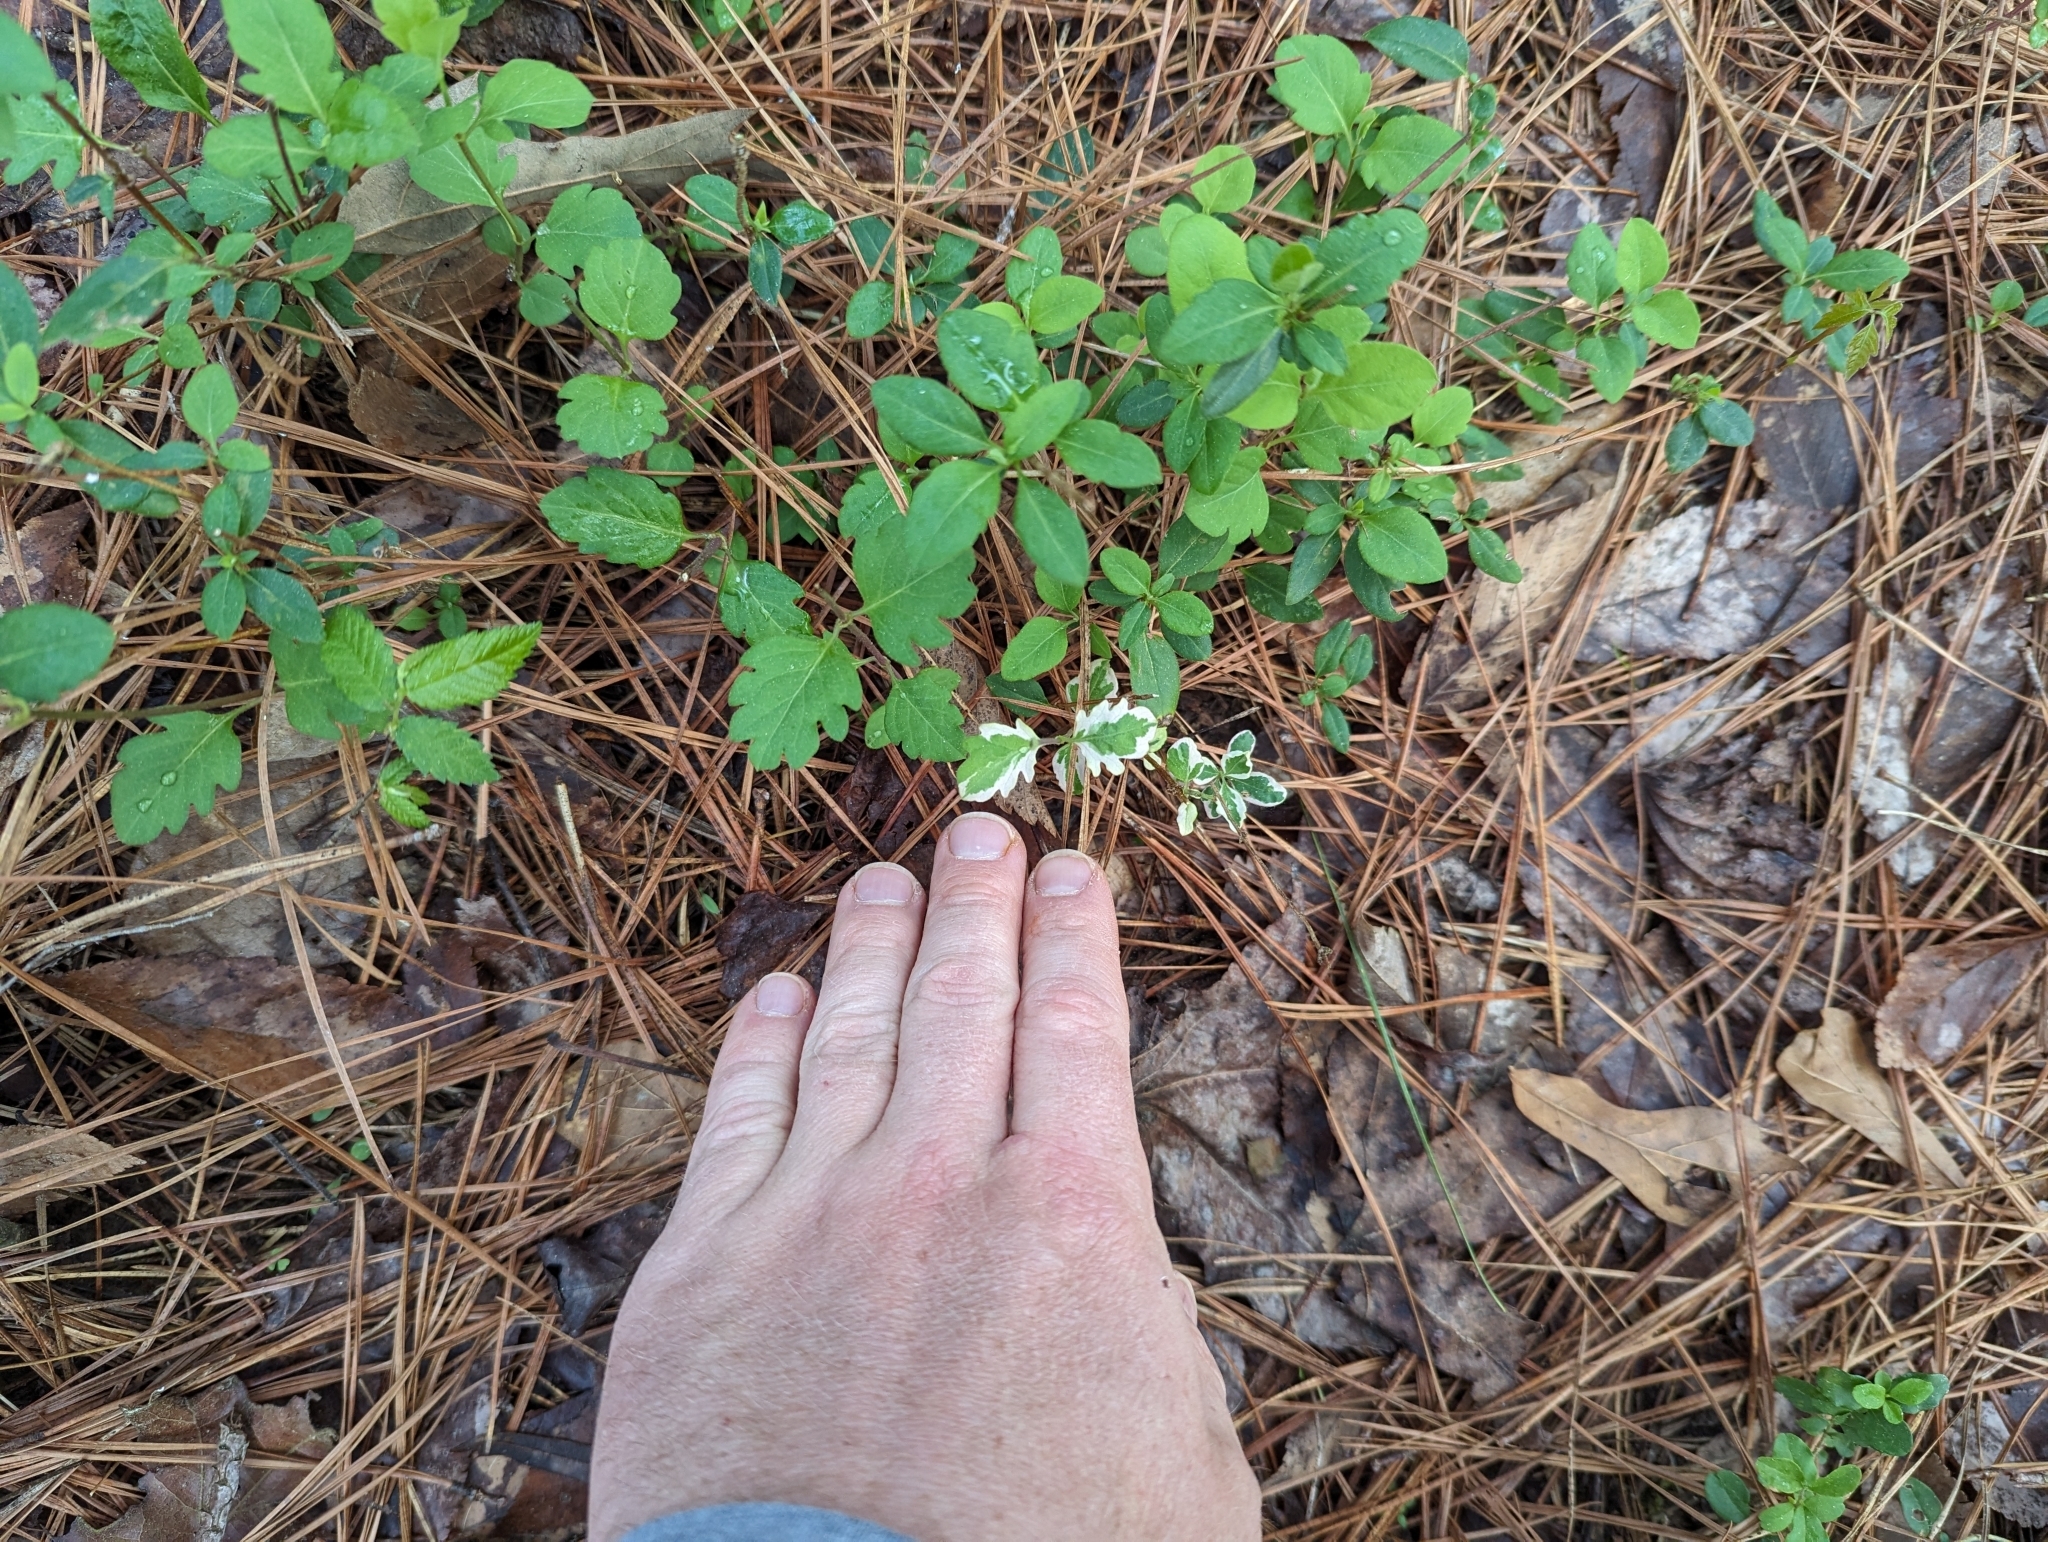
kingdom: Plantae
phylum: Tracheophyta
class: Magnoliopsida
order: Dipsacales
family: Caprifoliaceae
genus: Lonicera
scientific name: Lonicera japonica
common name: Japanese honeysuckle
